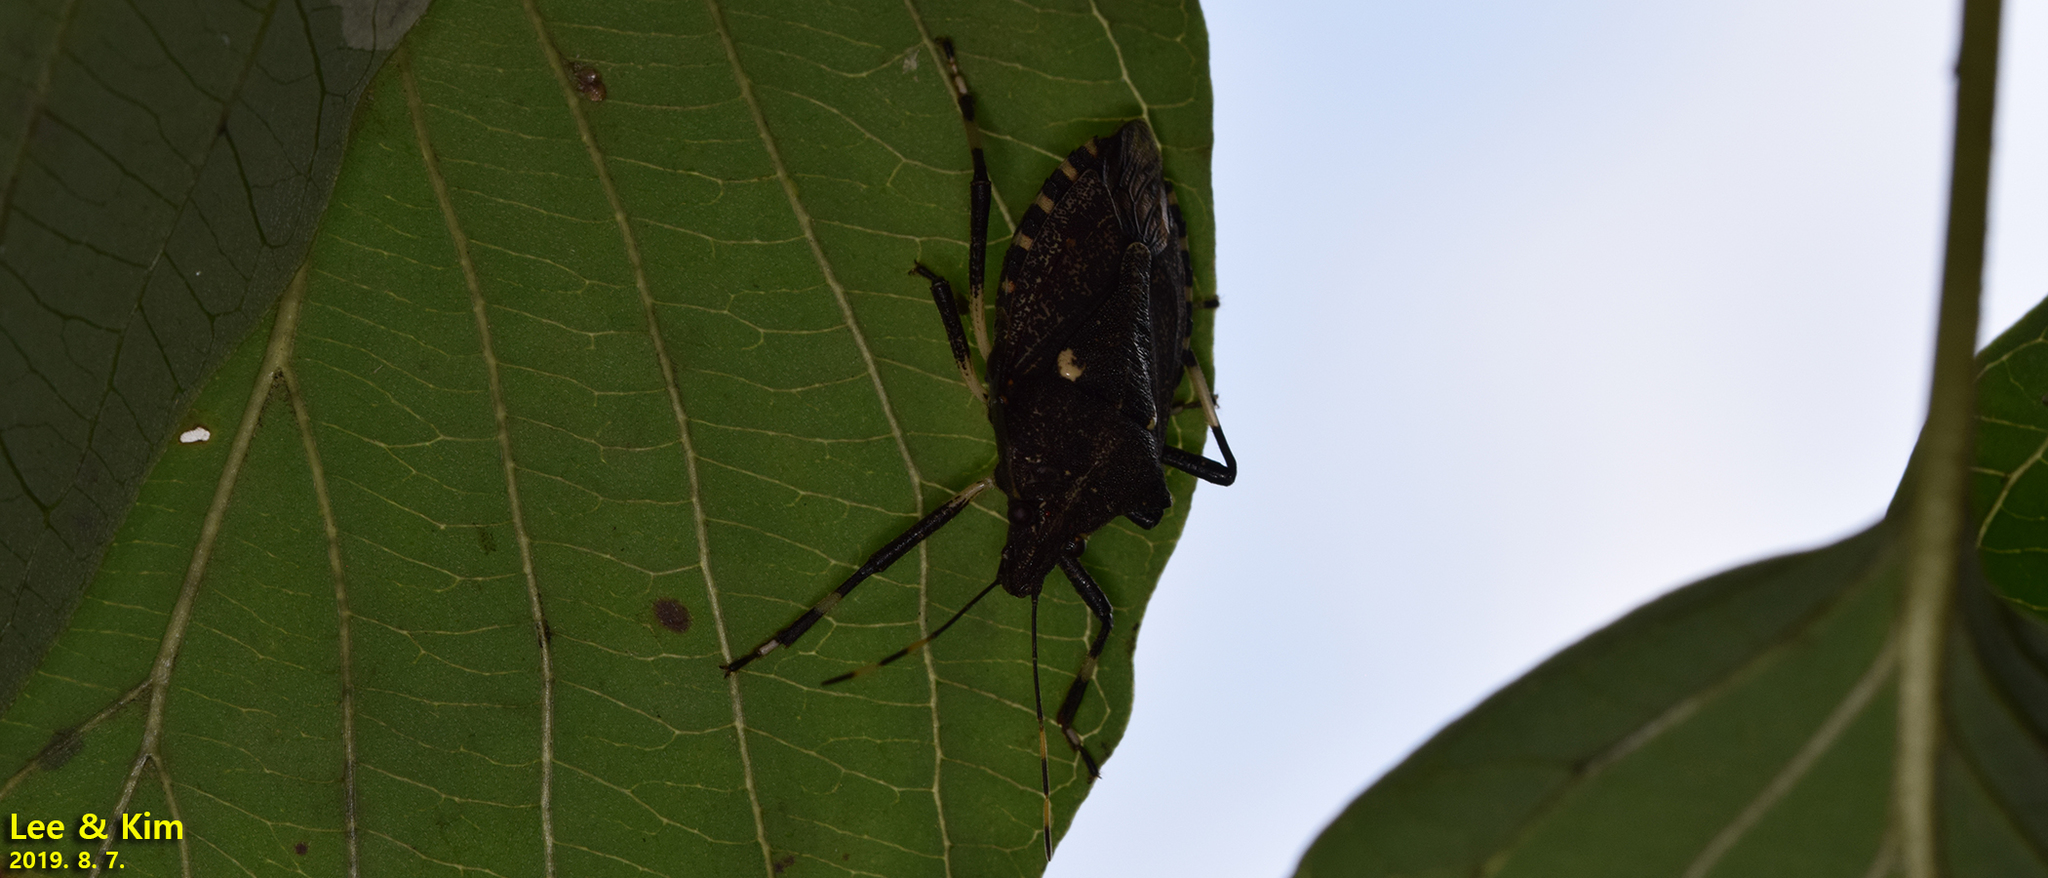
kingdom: Animalia
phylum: Arthropoda
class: Insecta
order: Hemiptera
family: Pentatomidae
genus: Halyomorpha
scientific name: Halyomorpha halys
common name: Brown marmorated stink bug
